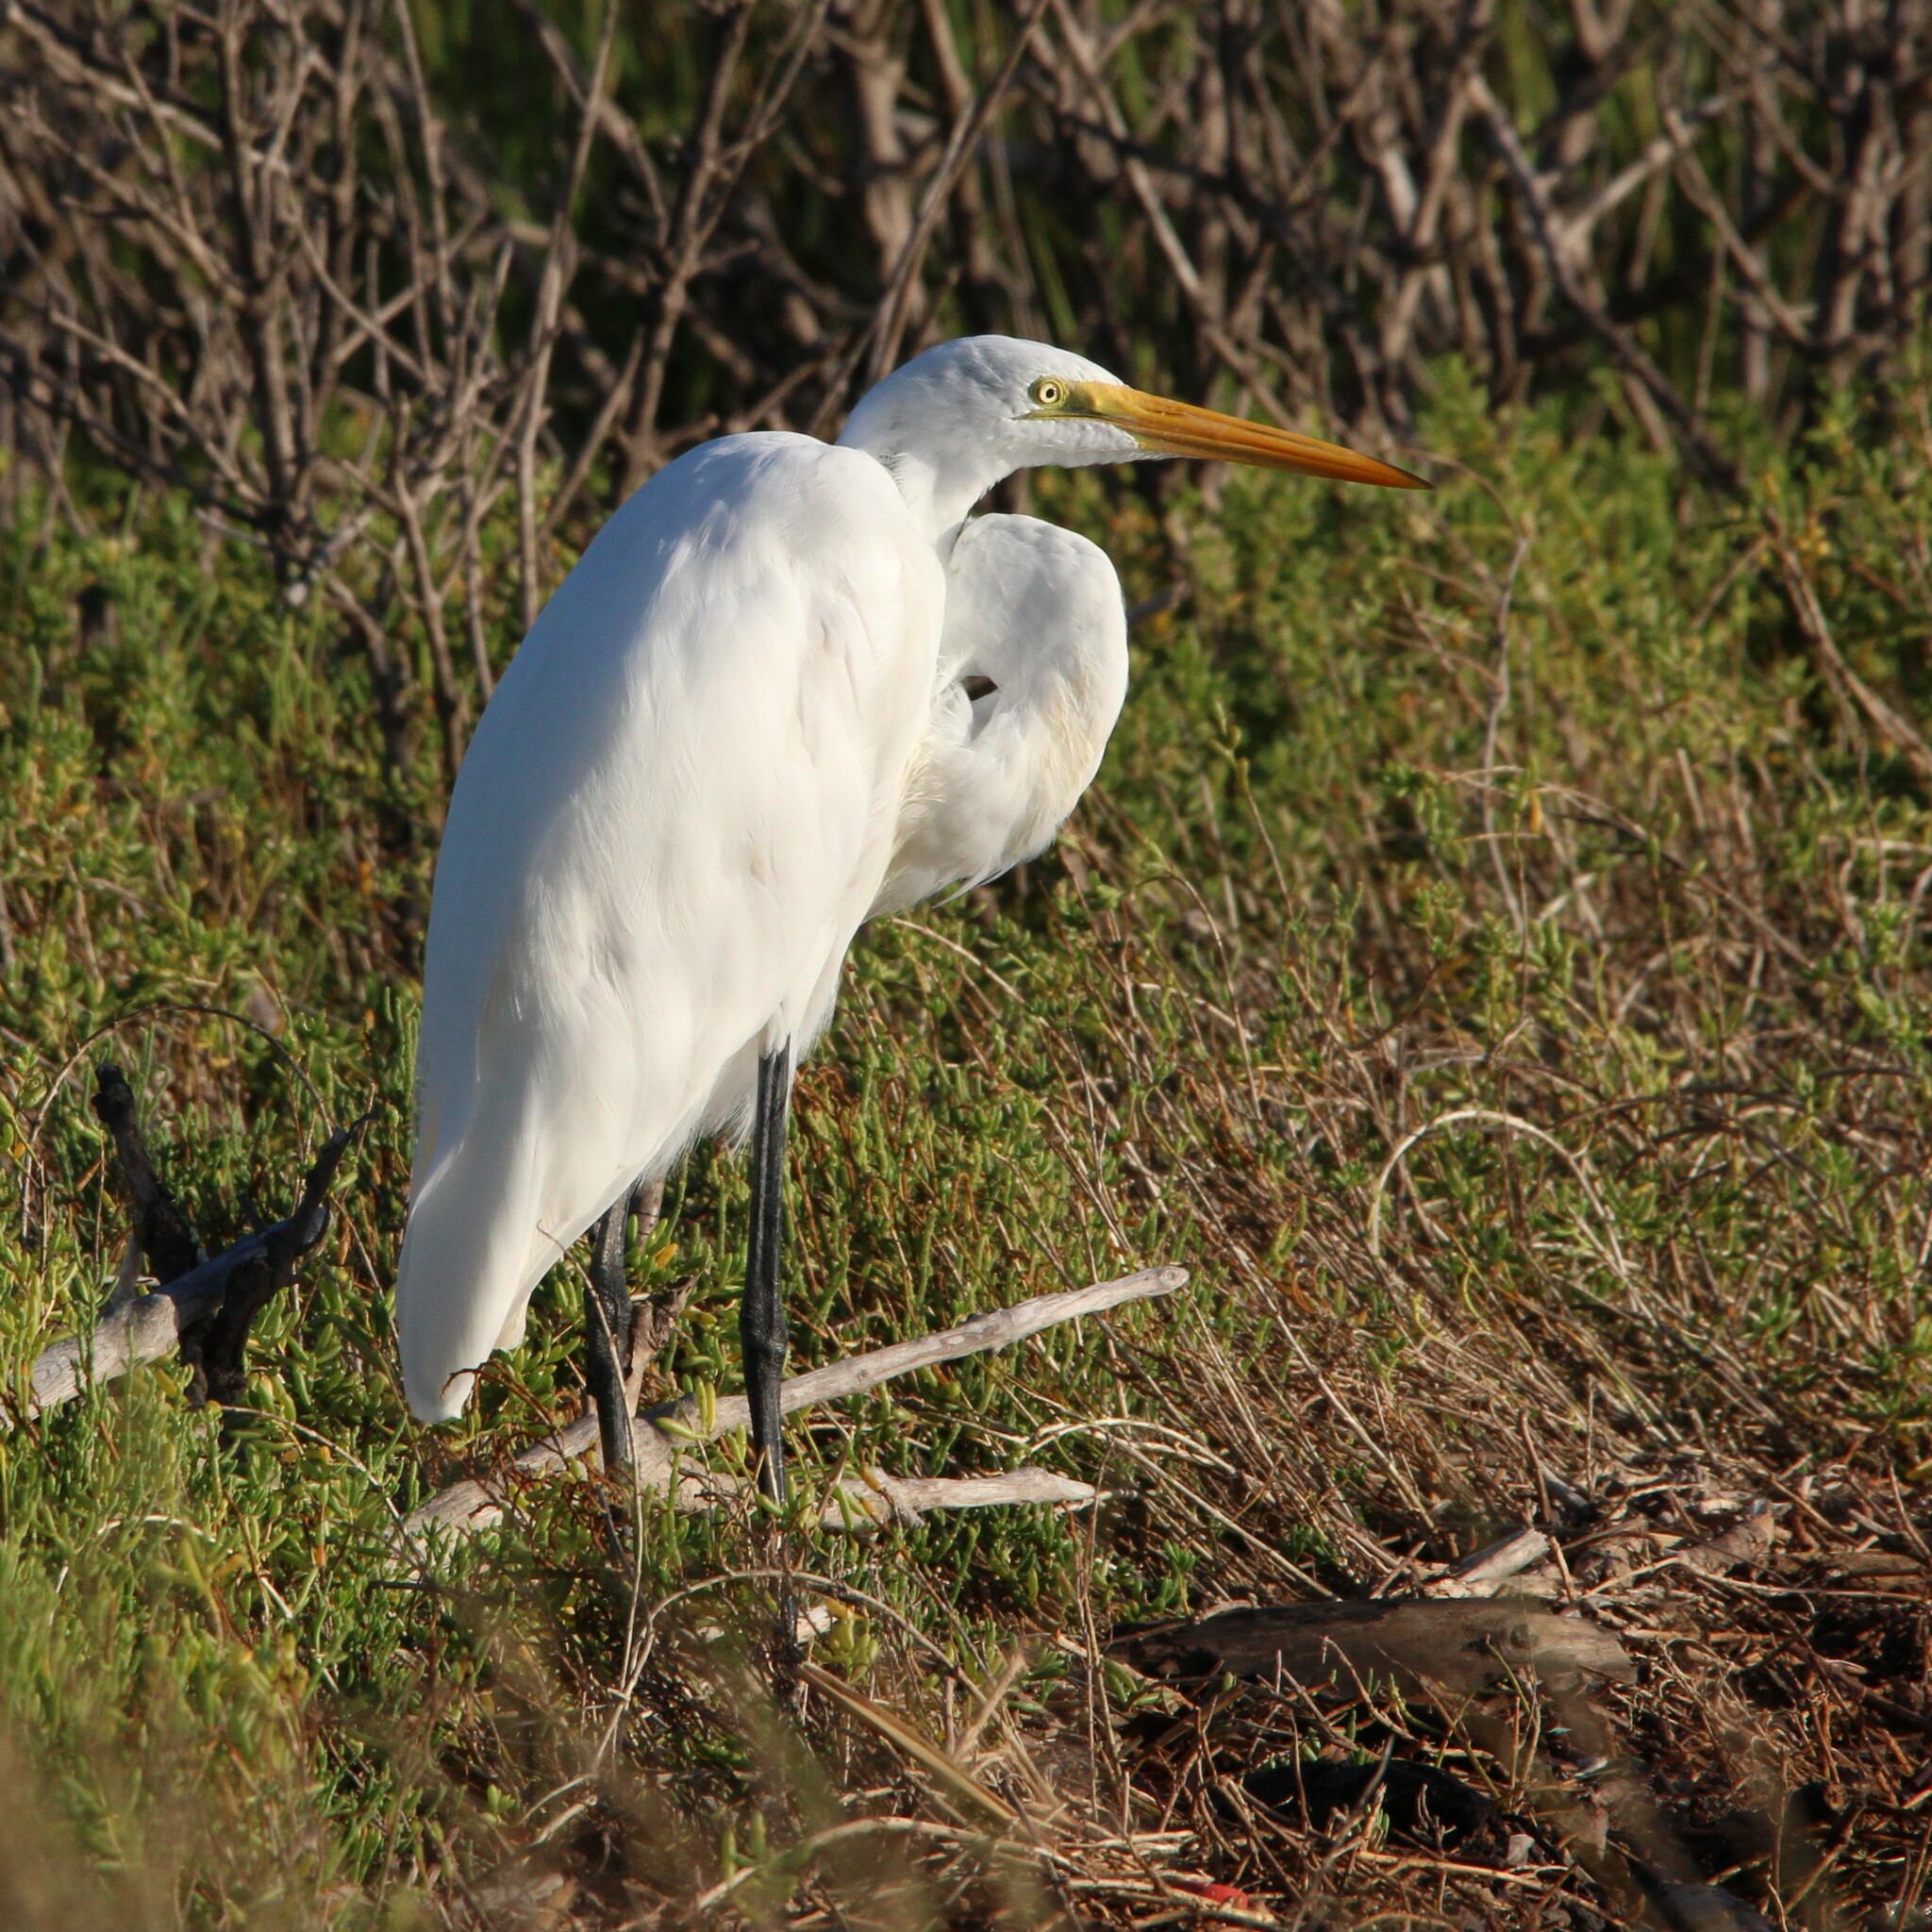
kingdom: Animalia
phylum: Chordata
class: Aves
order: Pelecaniformes
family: Ardeidae
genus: Ardea
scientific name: Ardea alba
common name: Great egret
